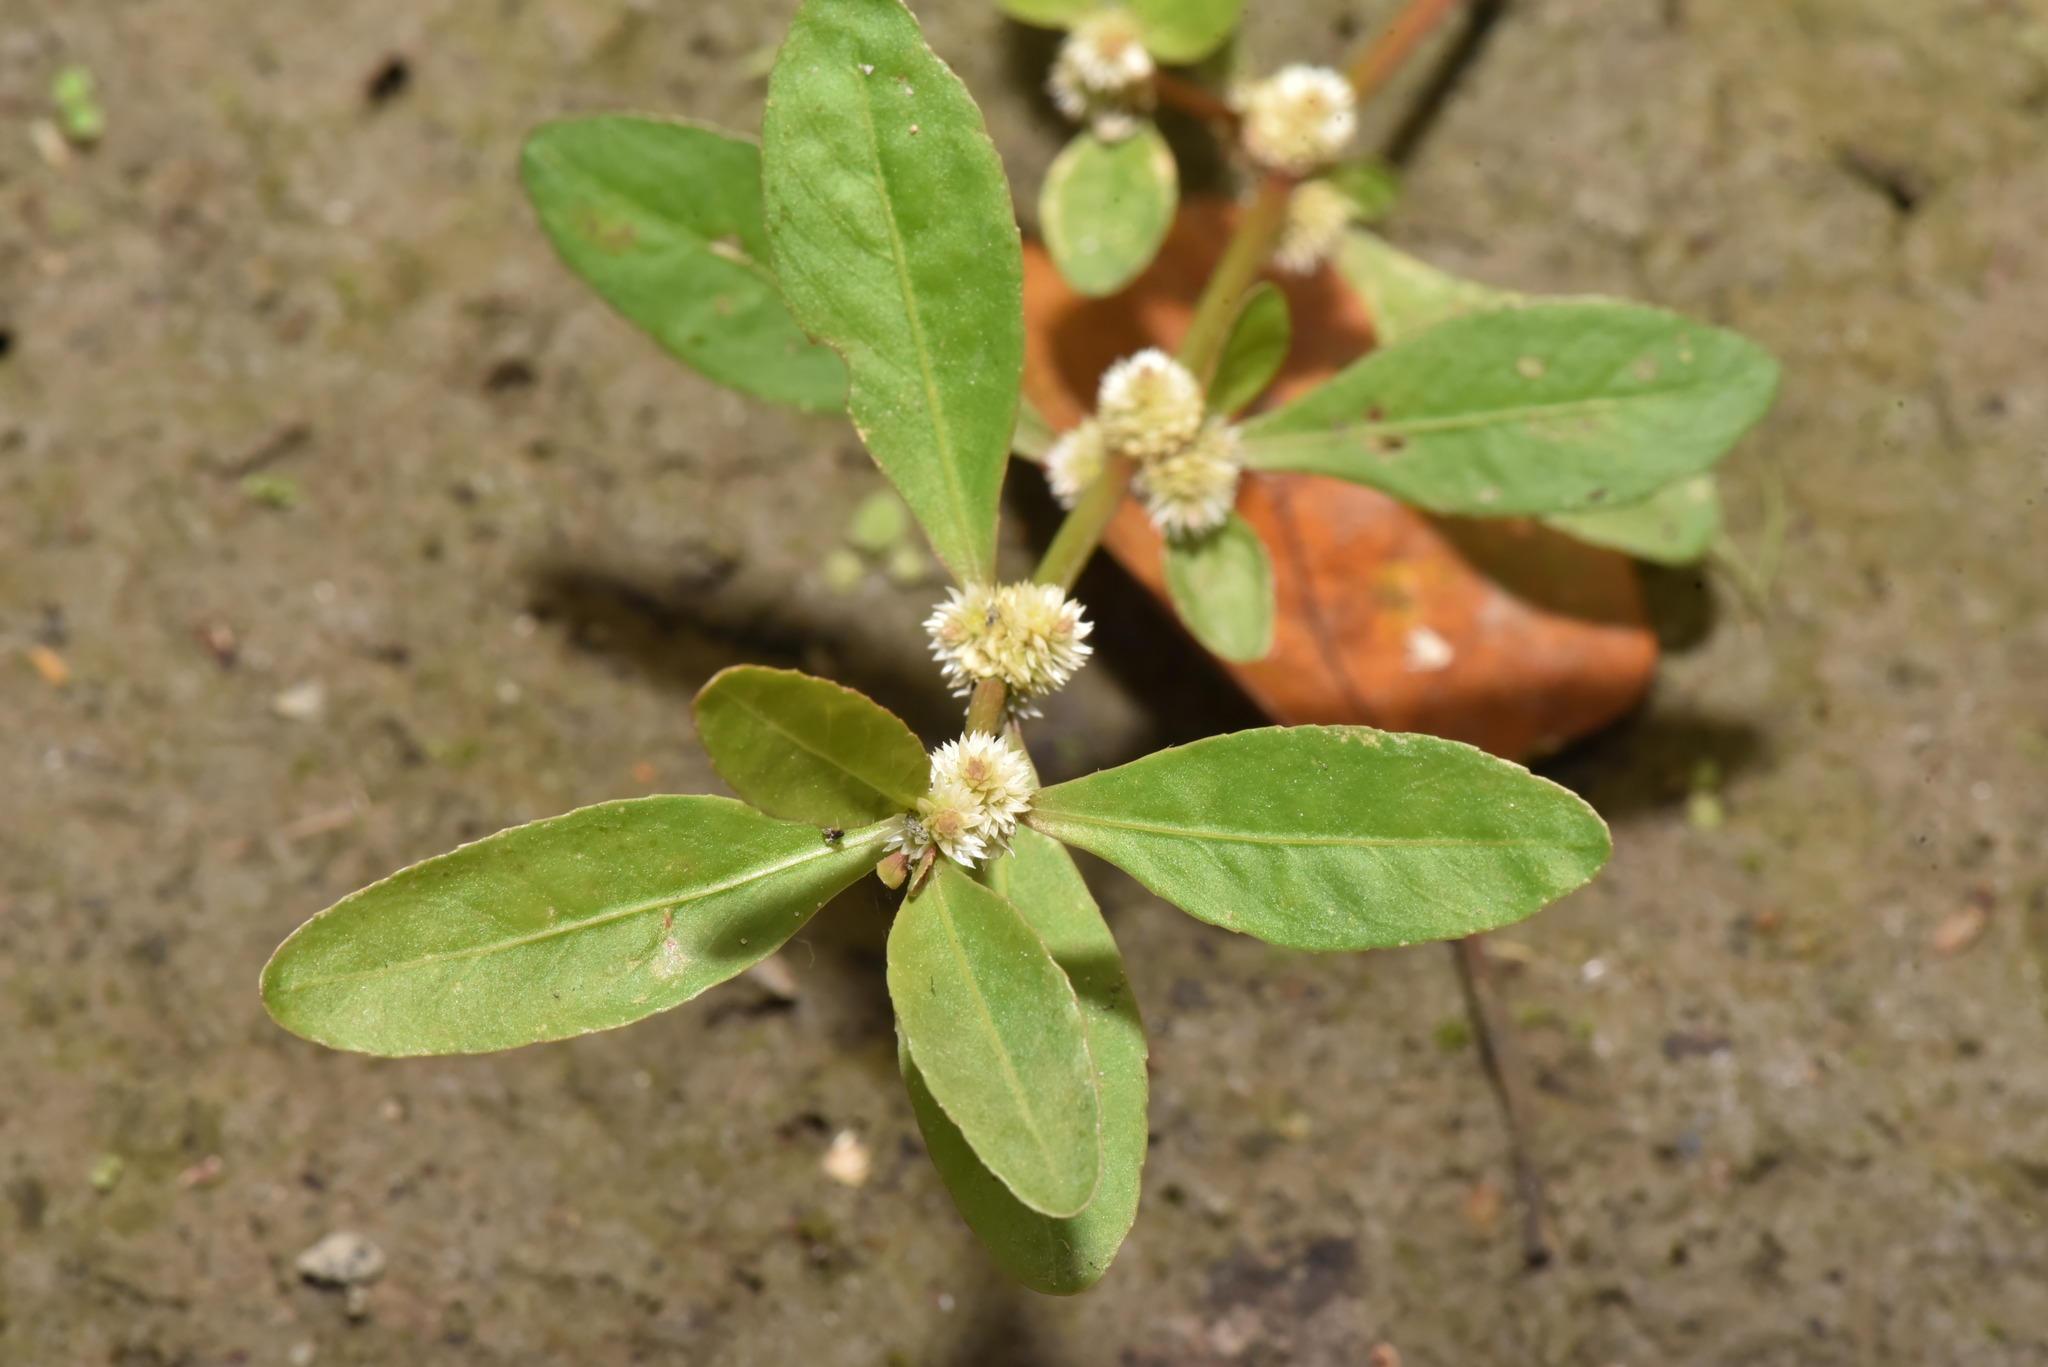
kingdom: Plantae
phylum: Tracheophyta
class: Magnoliopsida
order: Caryophyllales
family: Amaranthaceae
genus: Alternanthera
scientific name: Alternanthera sessilis
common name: Sessile joyweed
